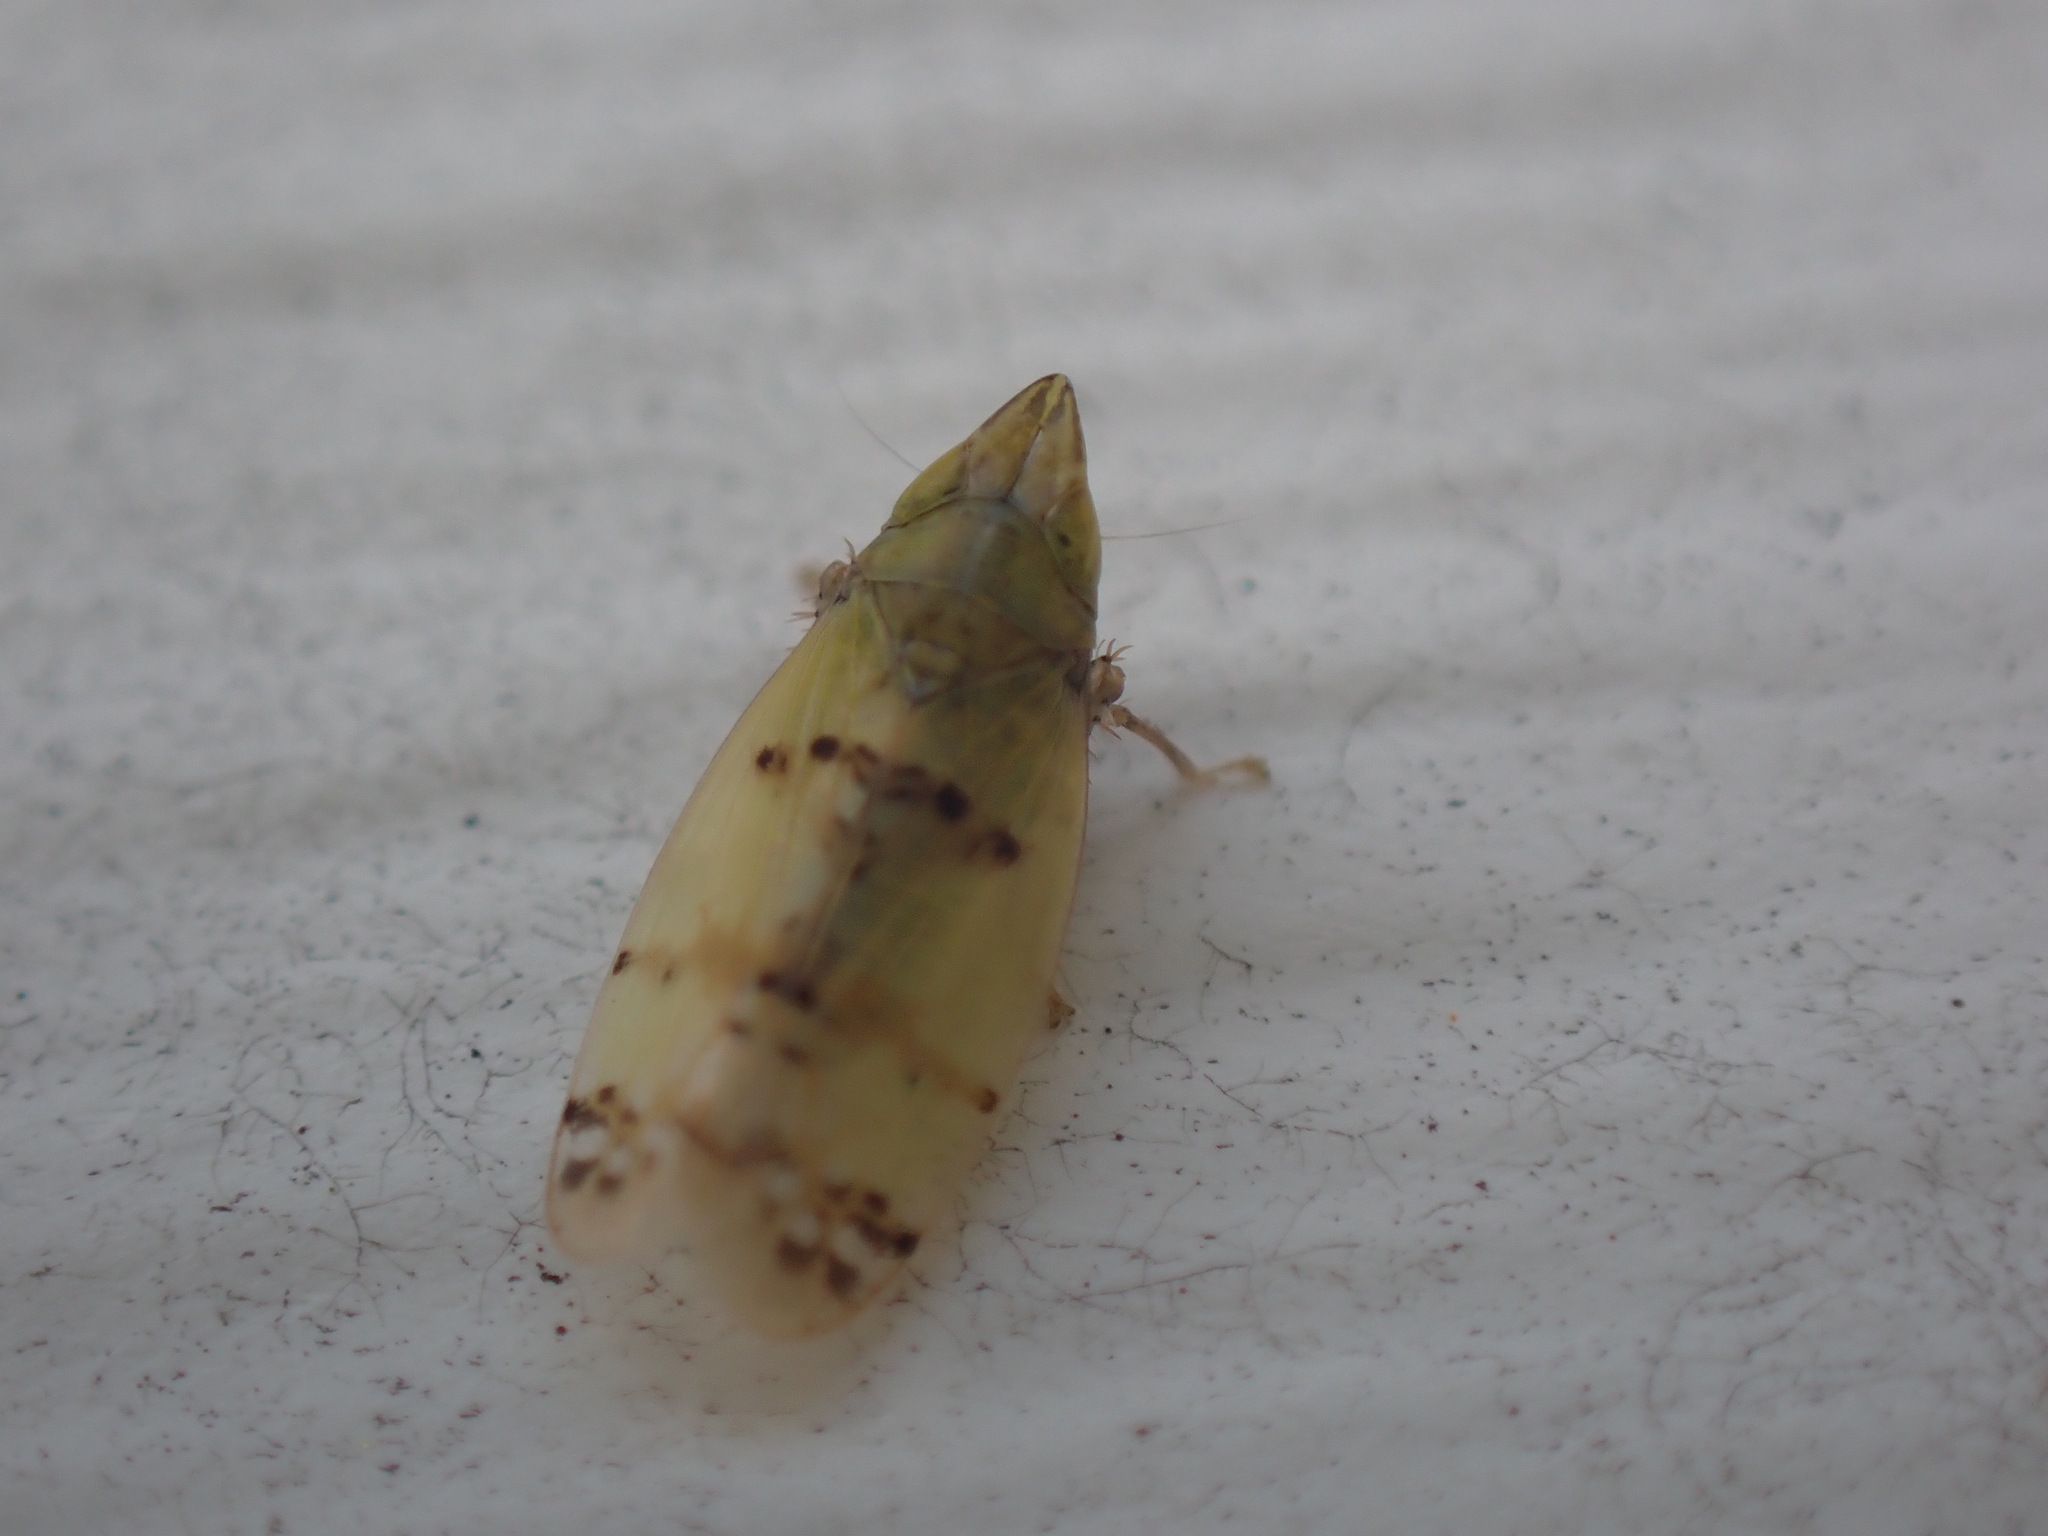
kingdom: Animalia
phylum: Arthropoda
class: Insecta
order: Hemiptera
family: Cicadellidae
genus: Japananus
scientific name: Japananus hyalinus
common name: The japanese maple leafhopper
